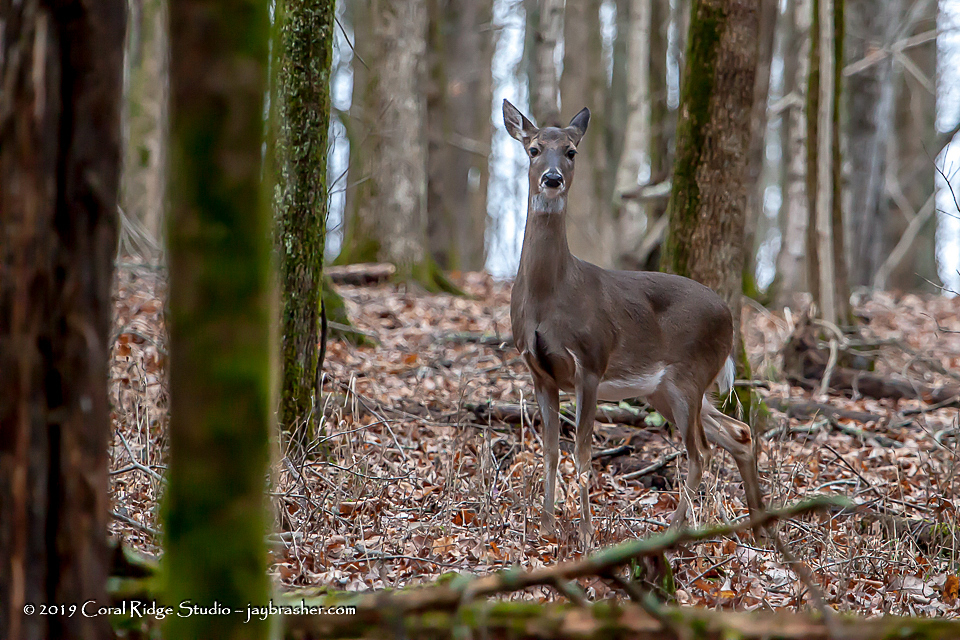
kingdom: Animalia
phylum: Chordata
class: Mammalia
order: Artiodactyla
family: Cervidae
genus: Odocoileus
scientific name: Odocoileus virginianus
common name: White-tailed deer
